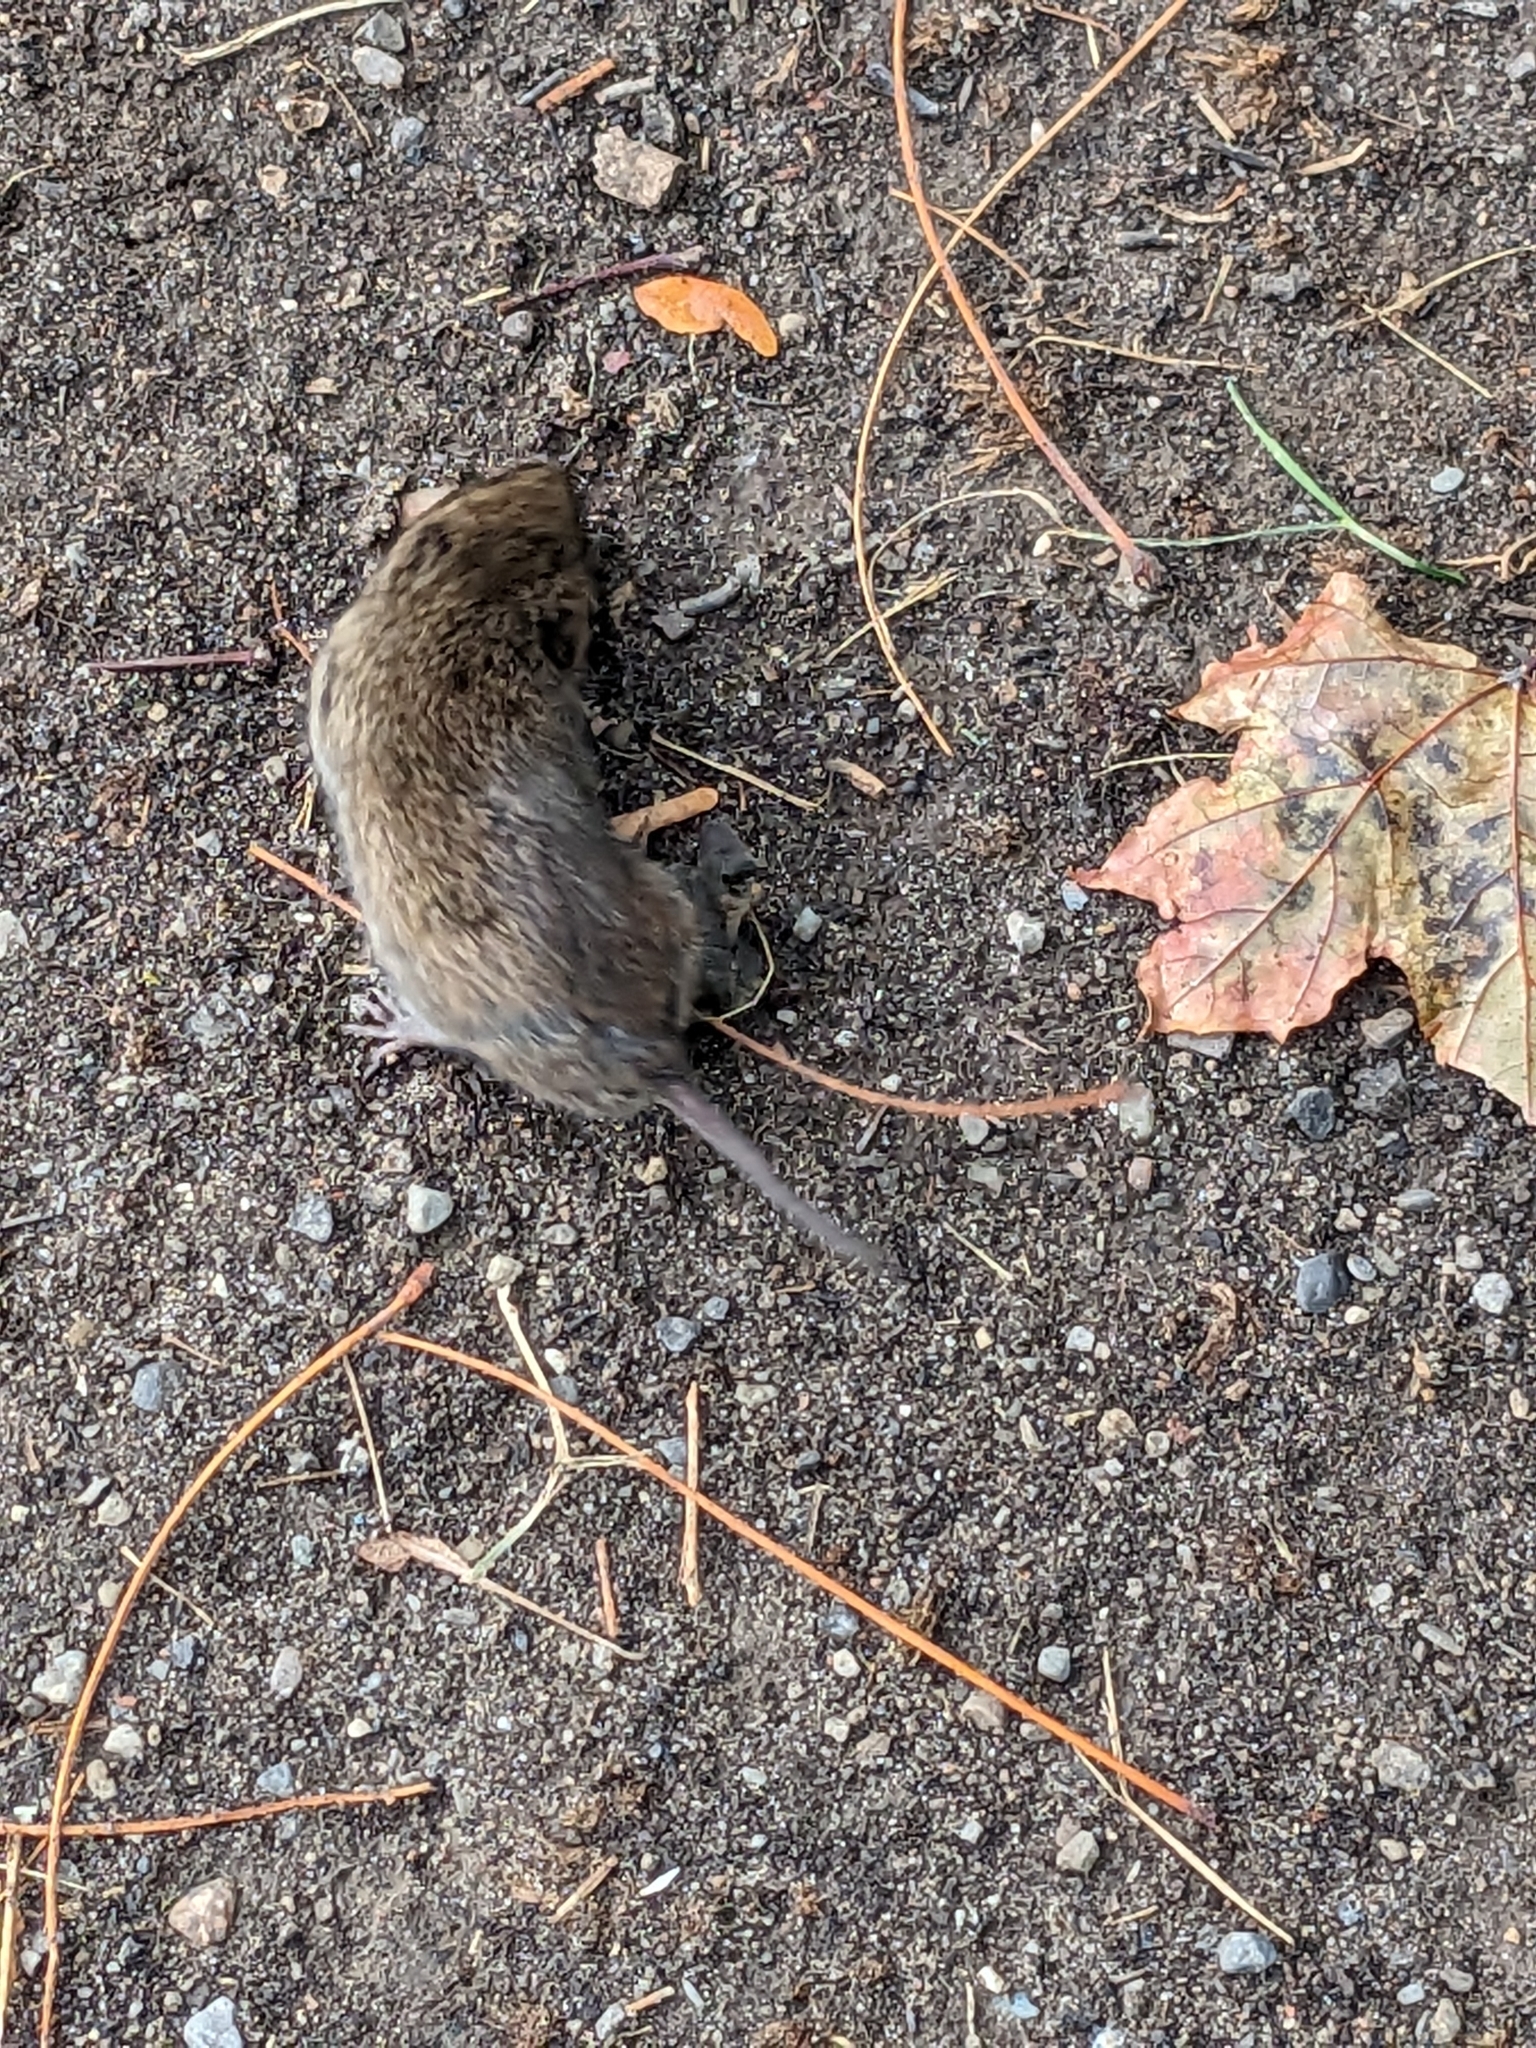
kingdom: Animalia
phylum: Chordata
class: Mammalia
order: Rodentia
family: Cricetidae
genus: Microtus
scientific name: Microtus pennsylvanicus
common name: Meadow vole
